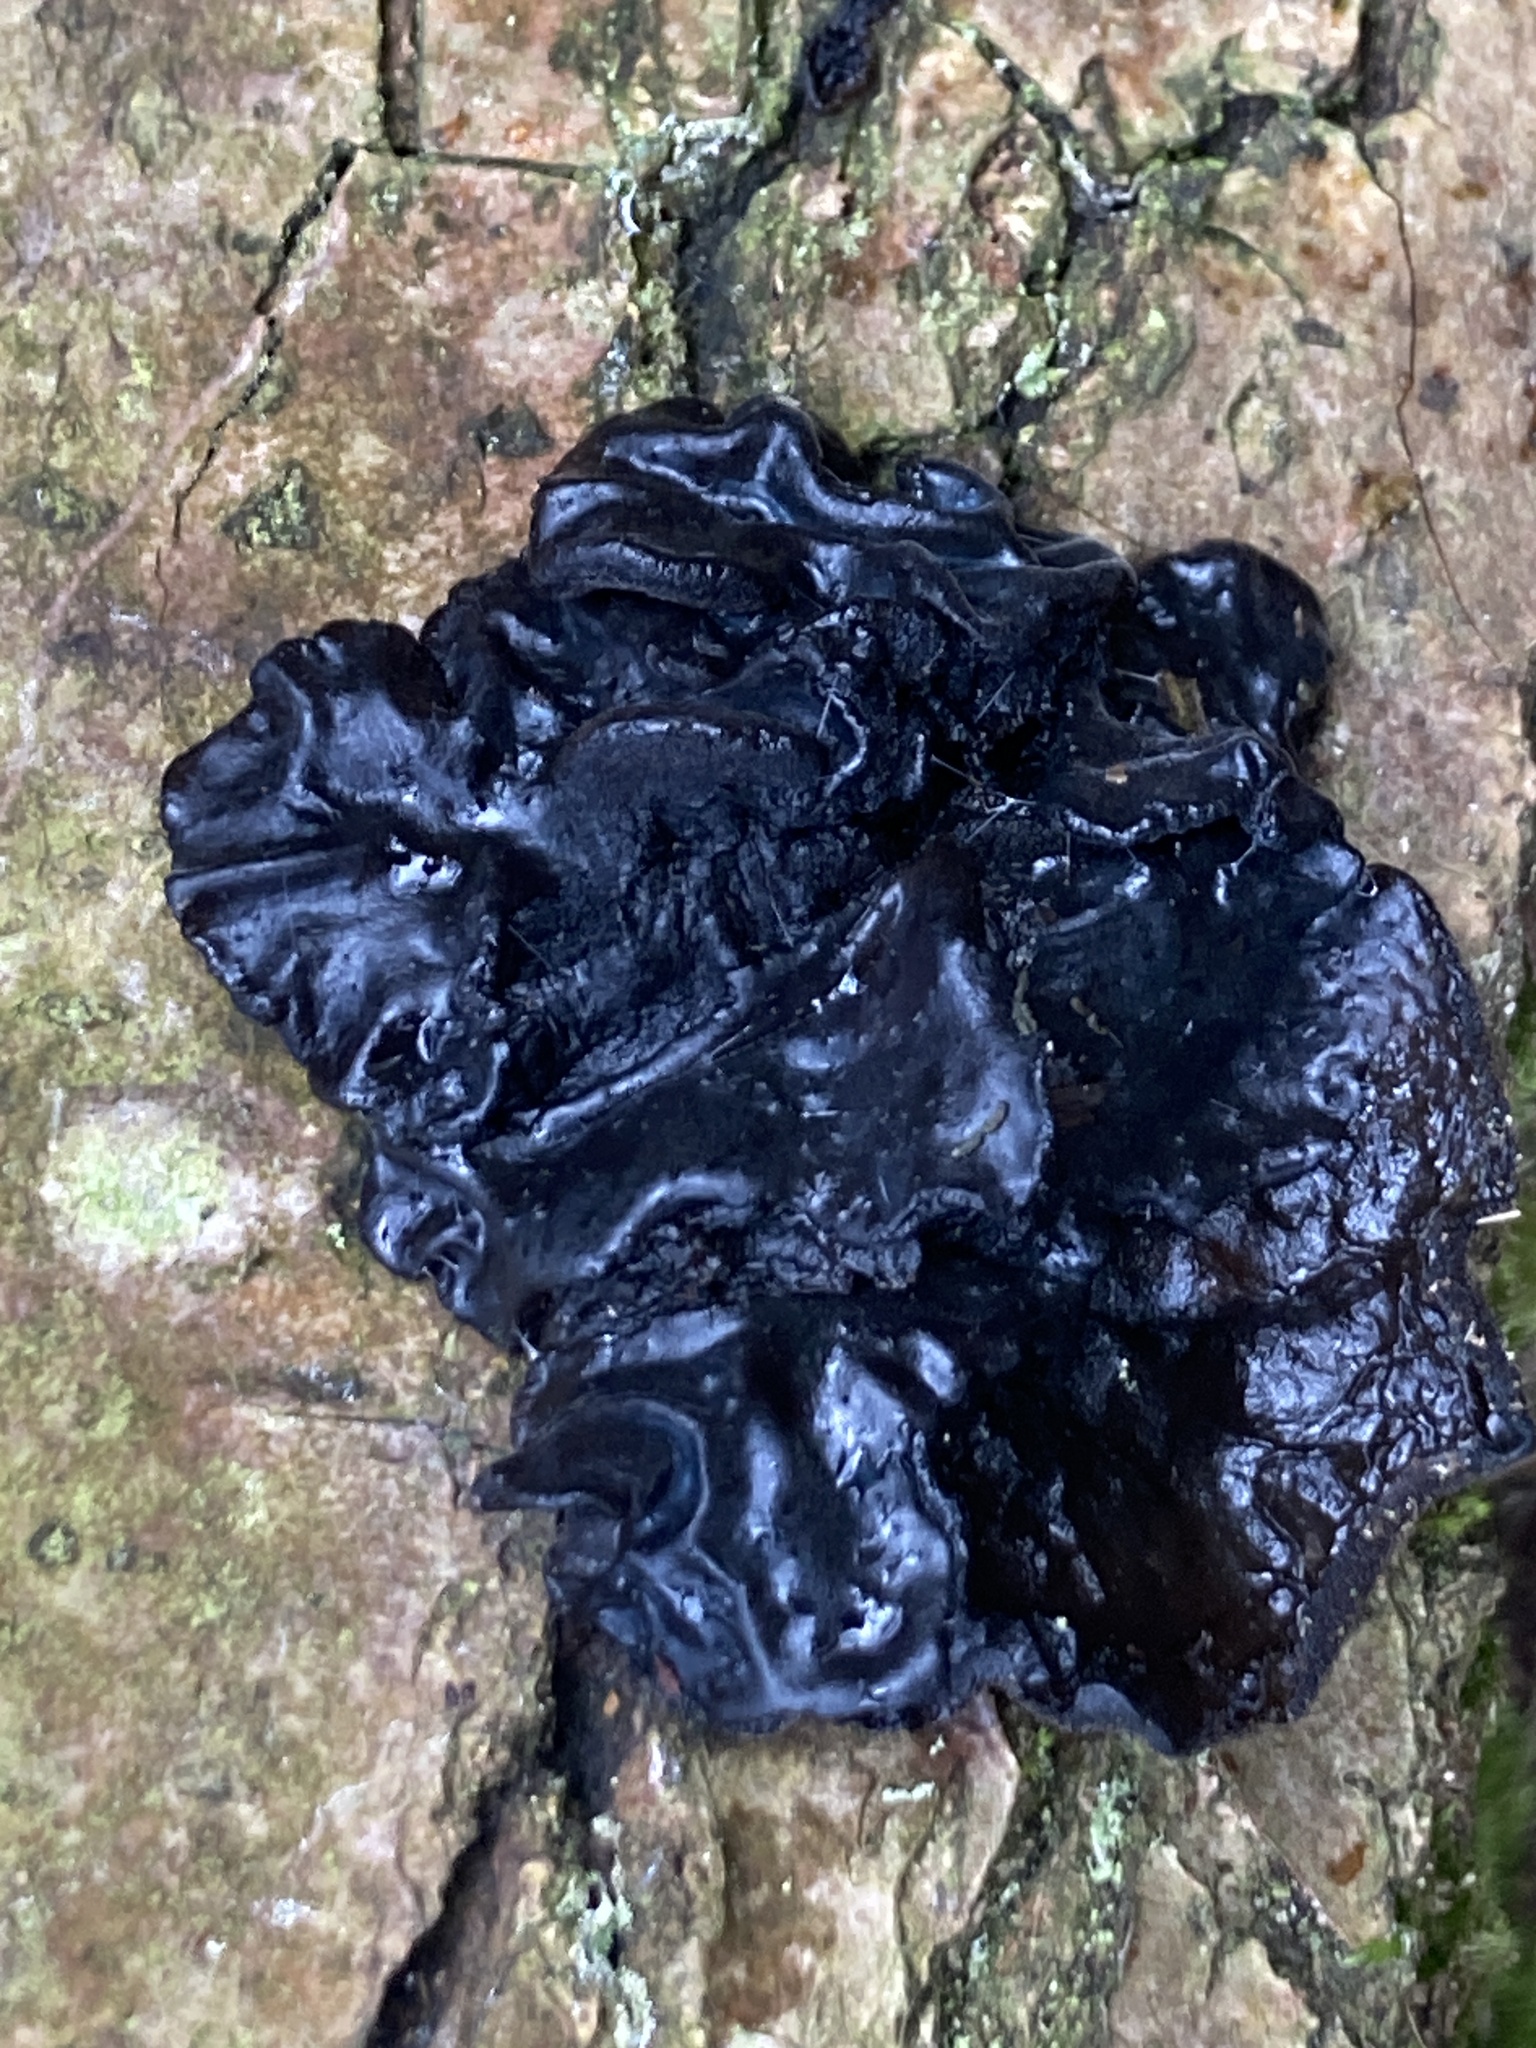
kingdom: Fungi
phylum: Basidiomycota
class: Agaricomycetes
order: Auriculariales
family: Auriculariaceae
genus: Exidia
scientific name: Exidia nigricans
